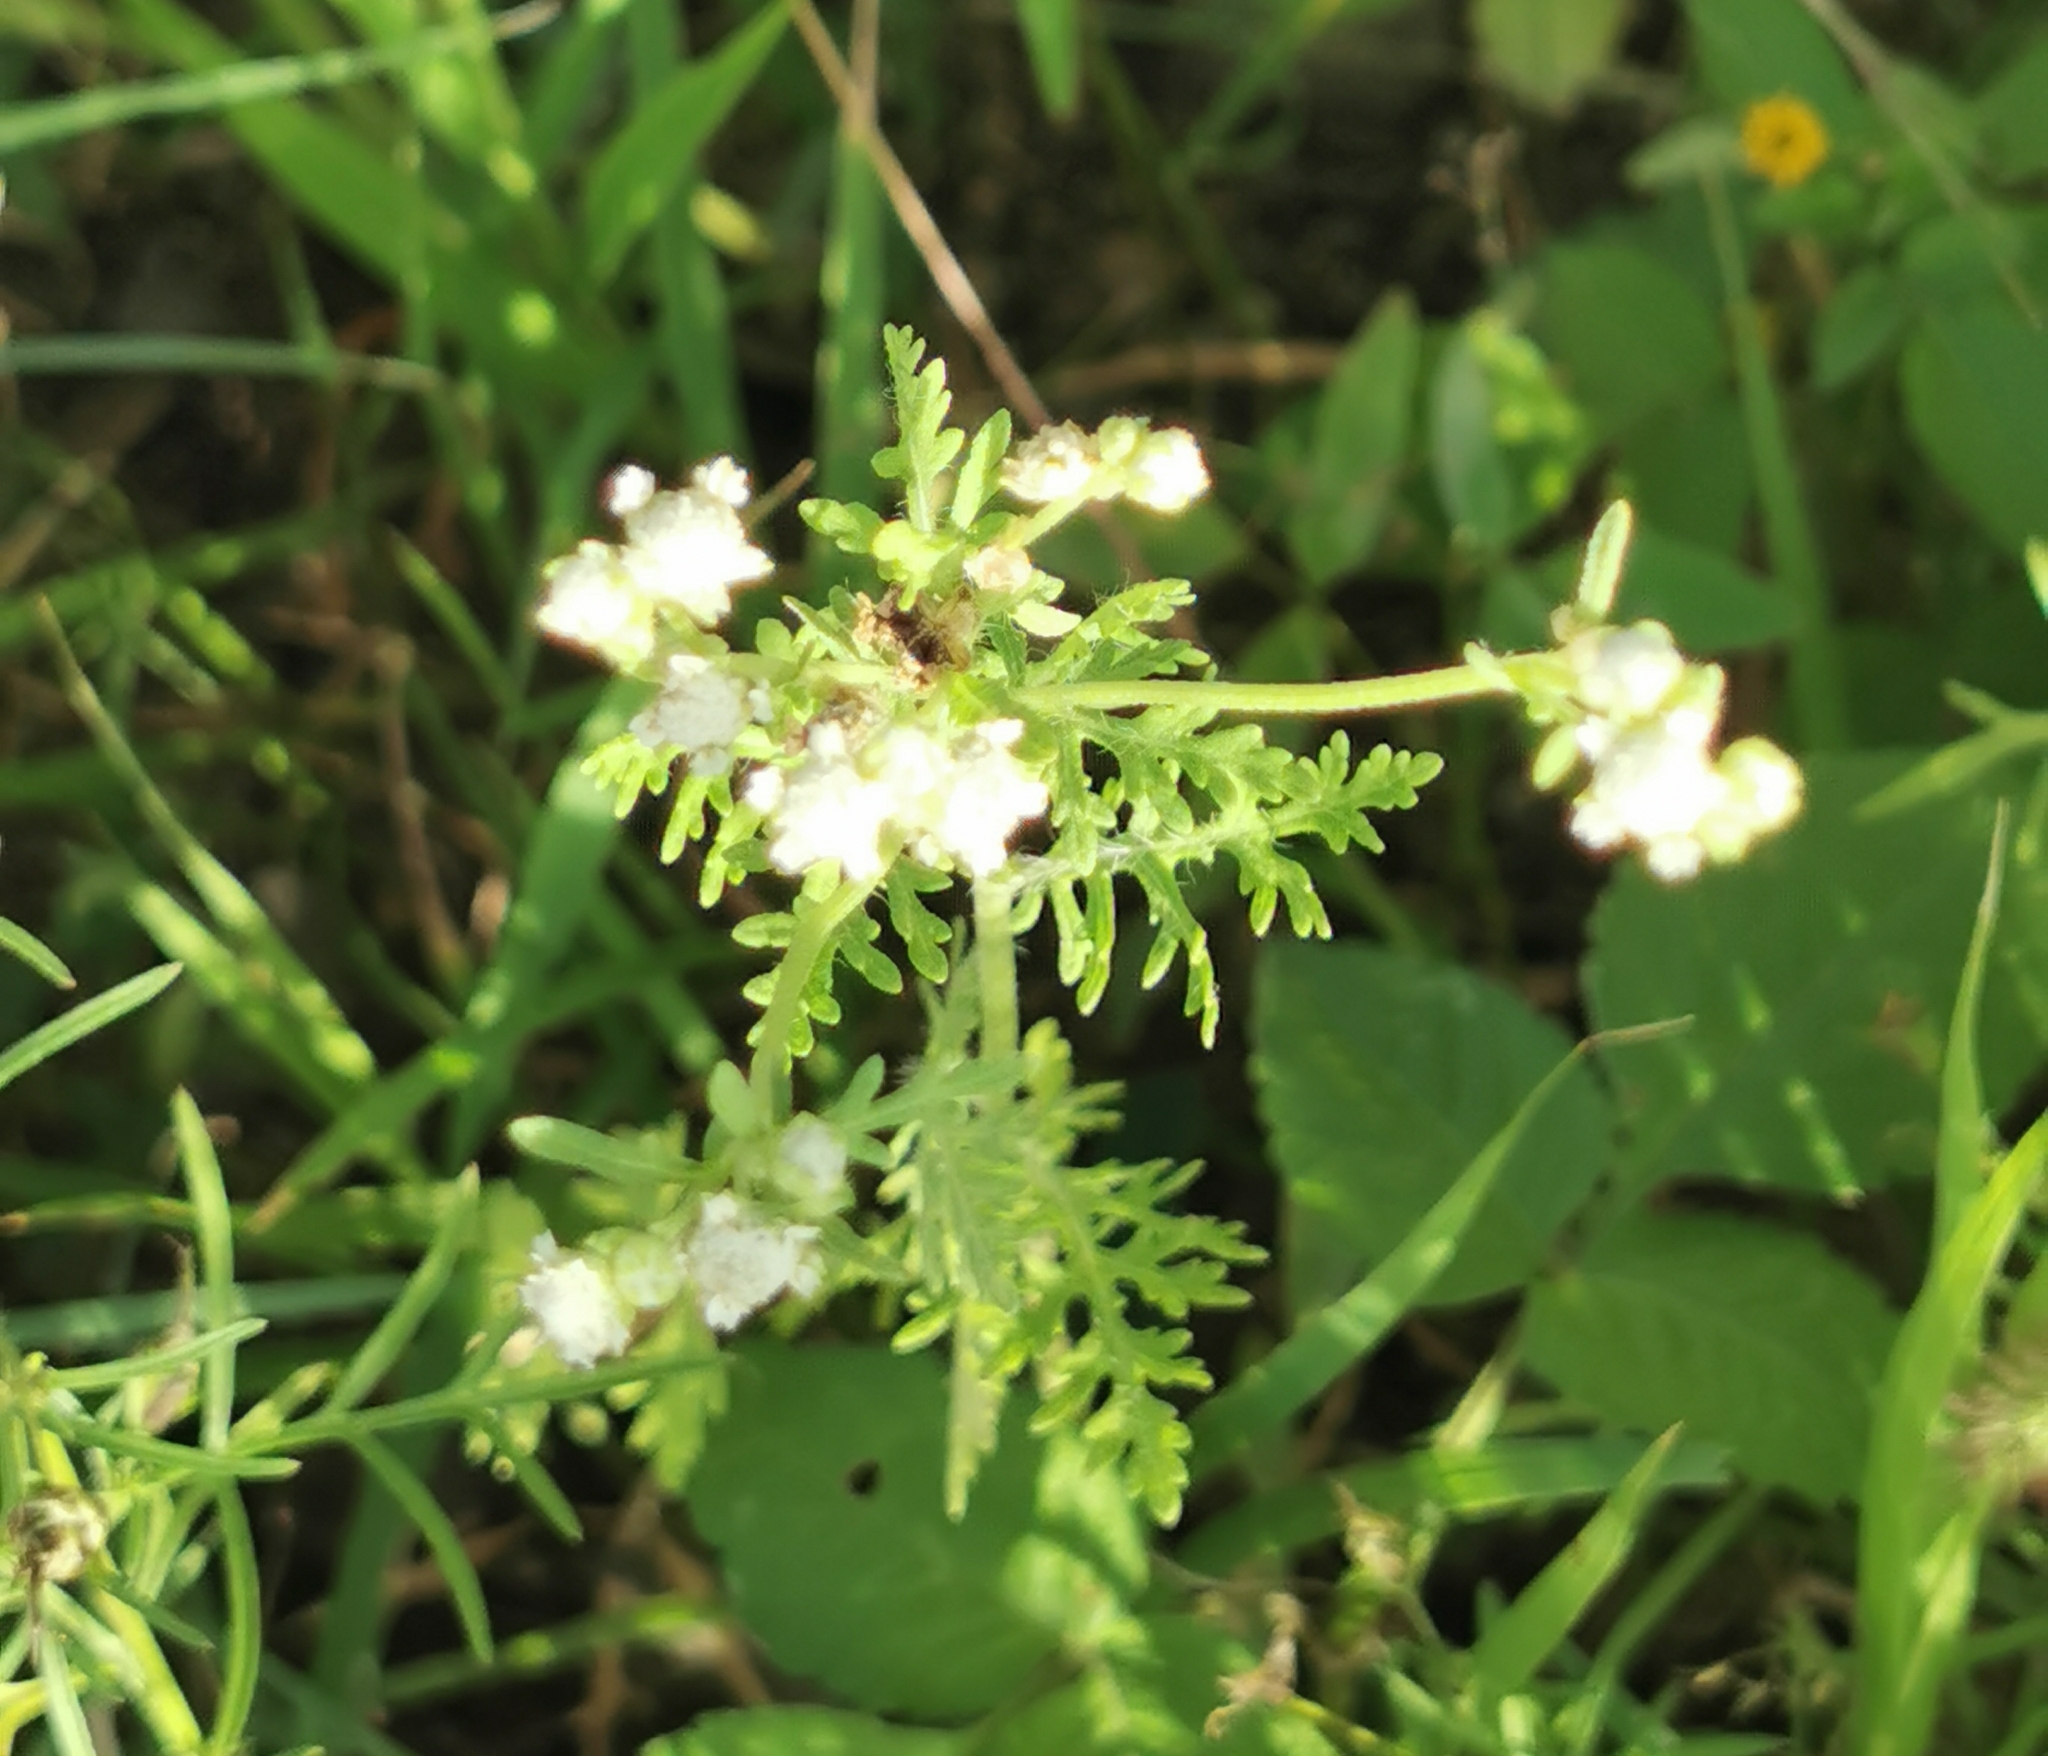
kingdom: Plantae
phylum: Tracheophyta
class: Magnoliopsida
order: Asterales
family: Asteraceae
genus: Parthenium
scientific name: Parthenium bipinnatifidum
